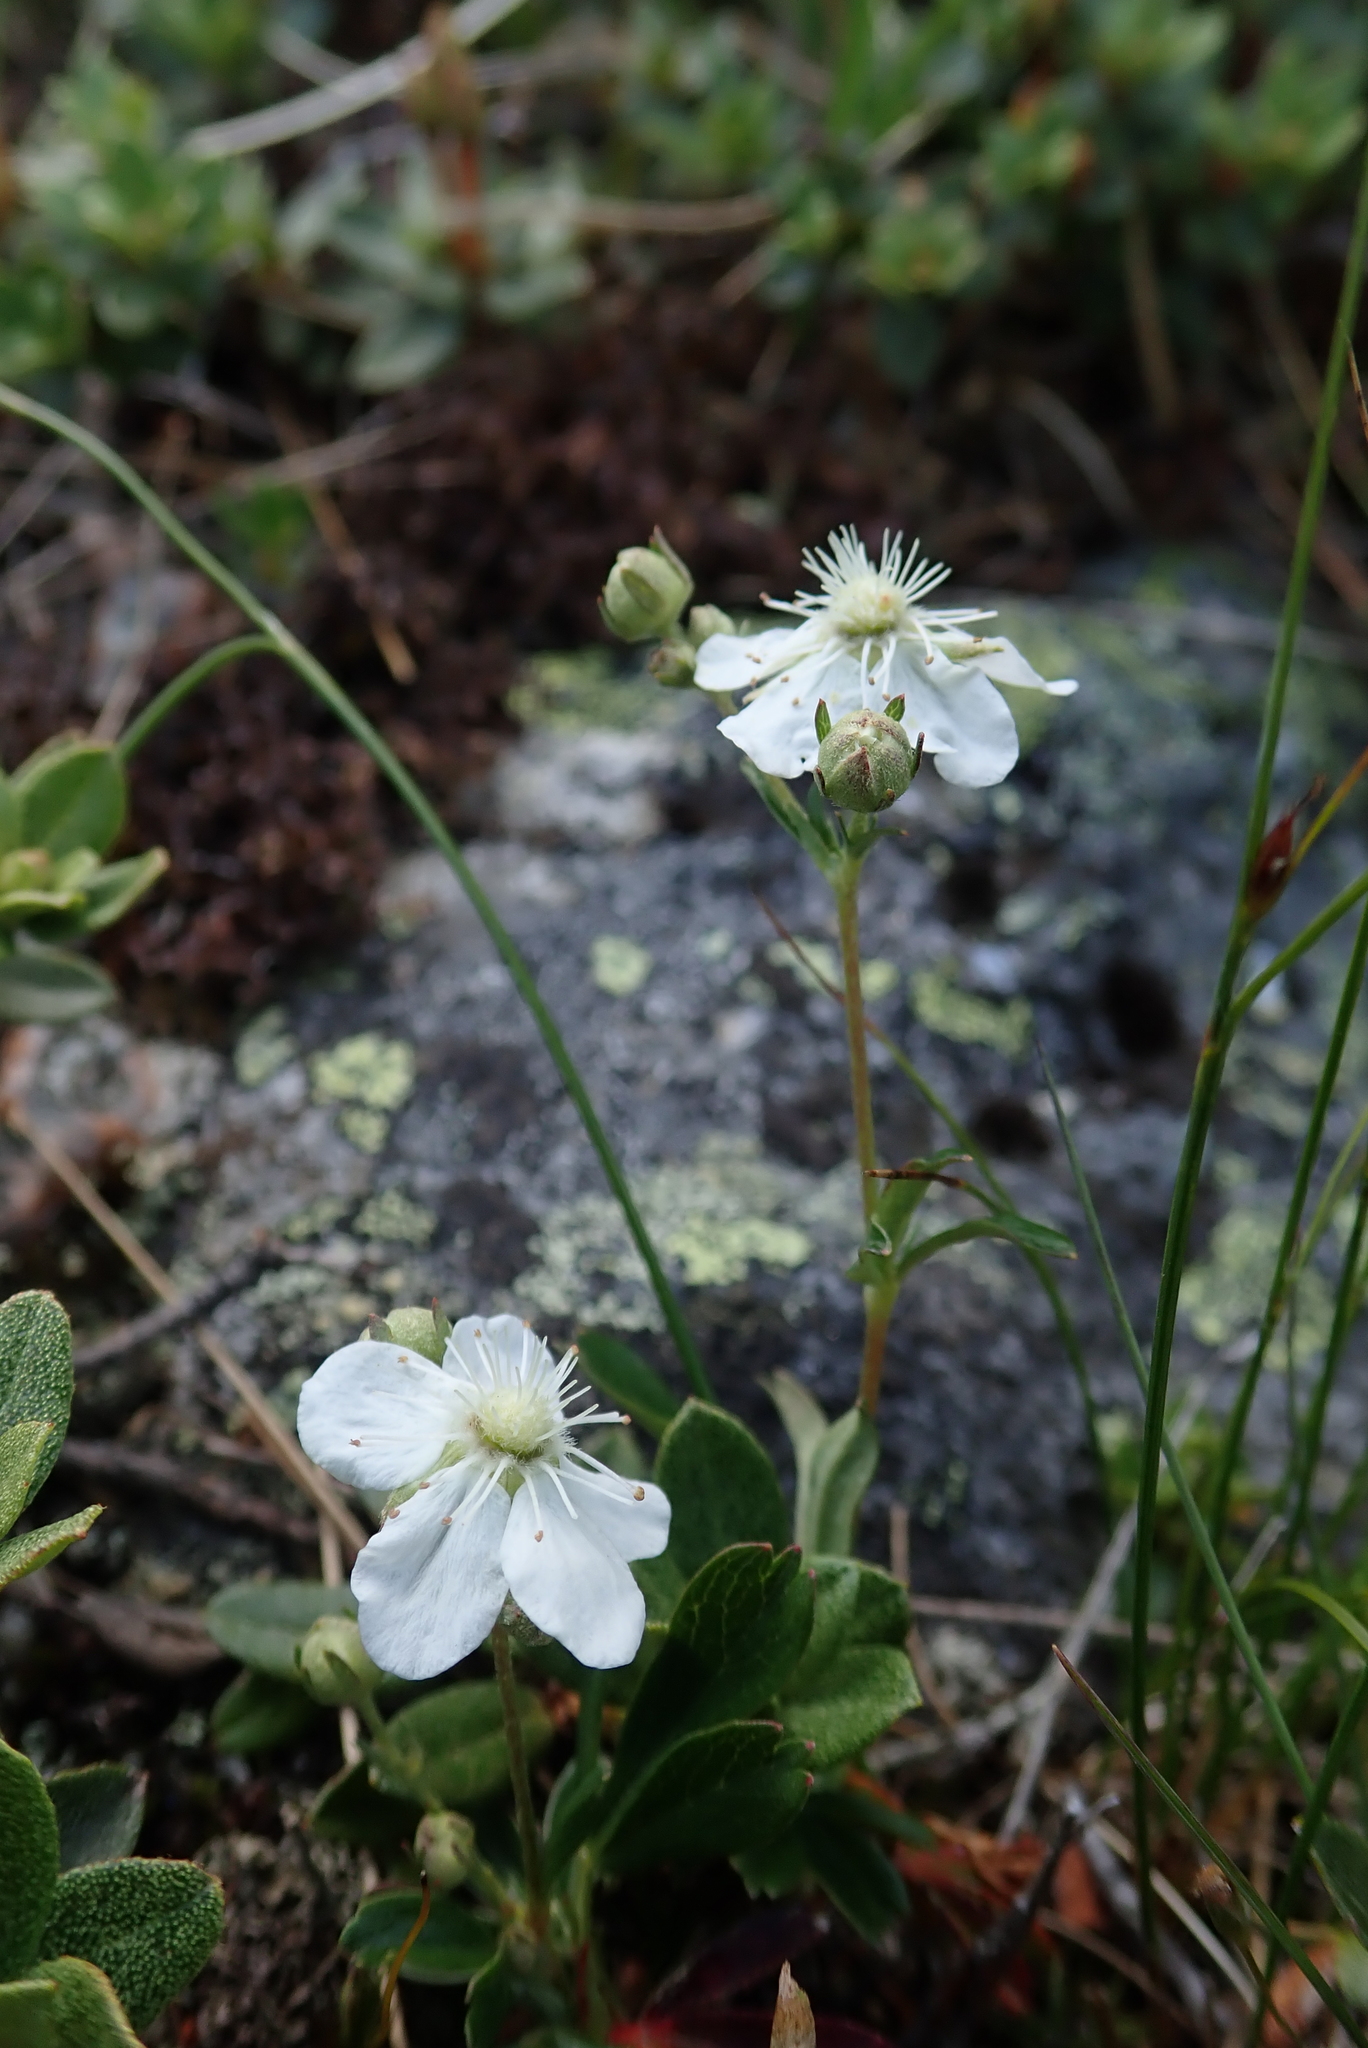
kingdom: Plantae
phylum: Tracheophyta
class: Magnoliopsida
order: Rosales
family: Rosaceae
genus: Sibbaldia
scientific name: Sibbaldia tridentata
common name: Three-toothed cinquefoil
